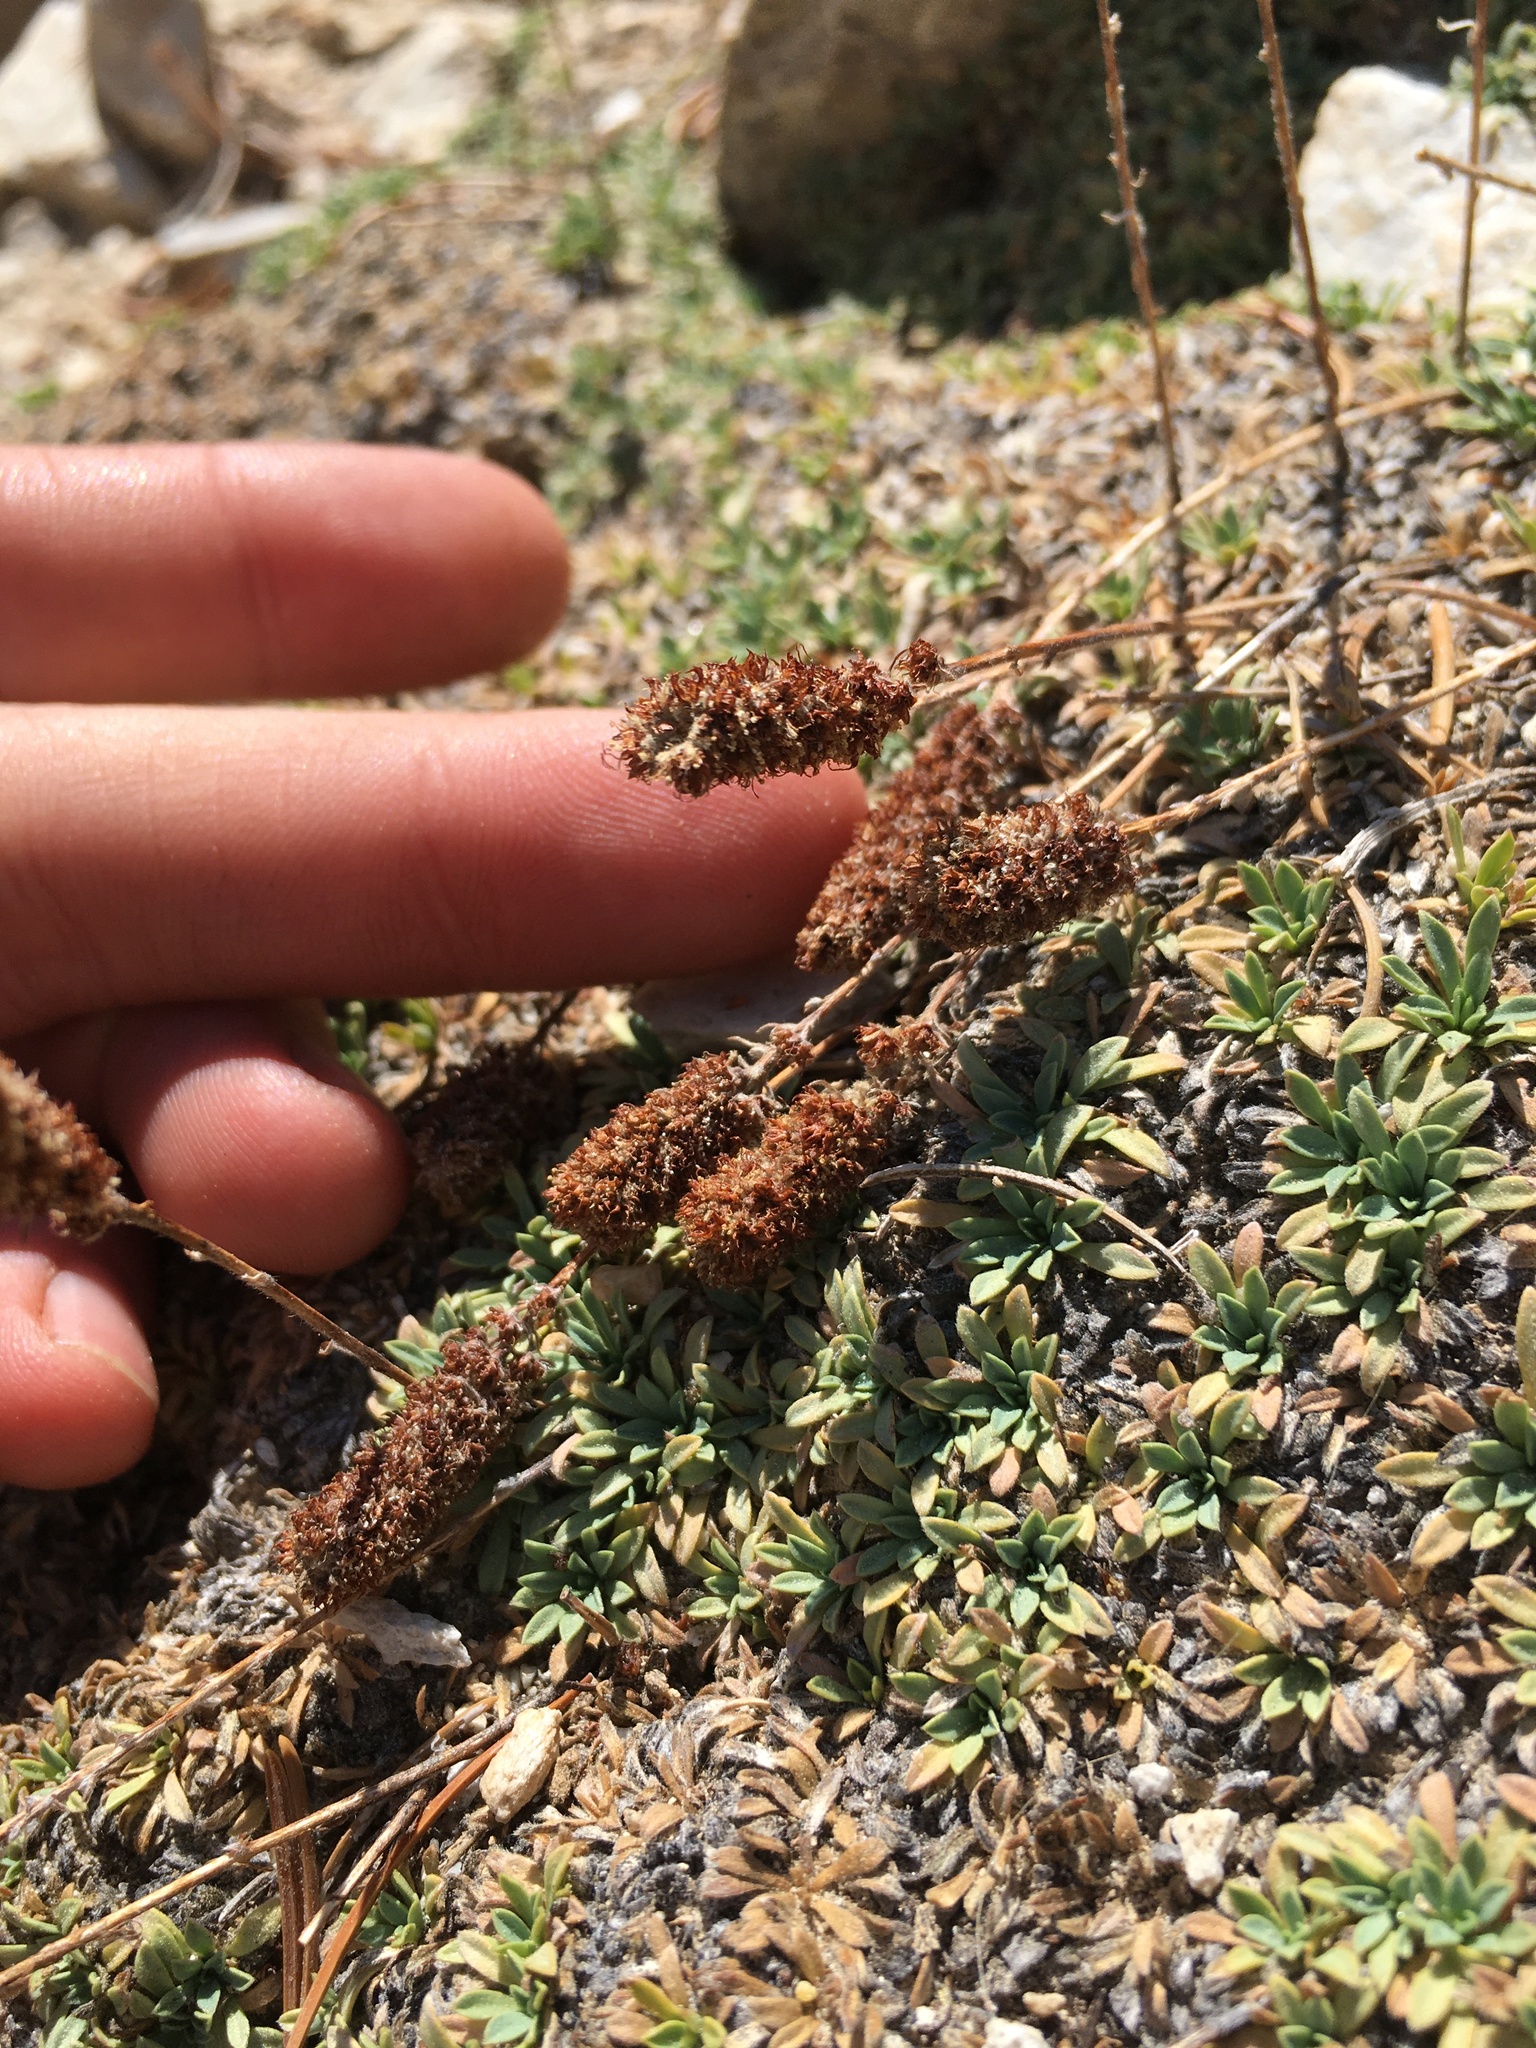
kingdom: Plantae
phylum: Tracheophyta
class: Magnoliopsida
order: Rosales
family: Rosaceae
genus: Petrophytum
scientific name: Petrophytum caespitosum
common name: Mat rockspirea
